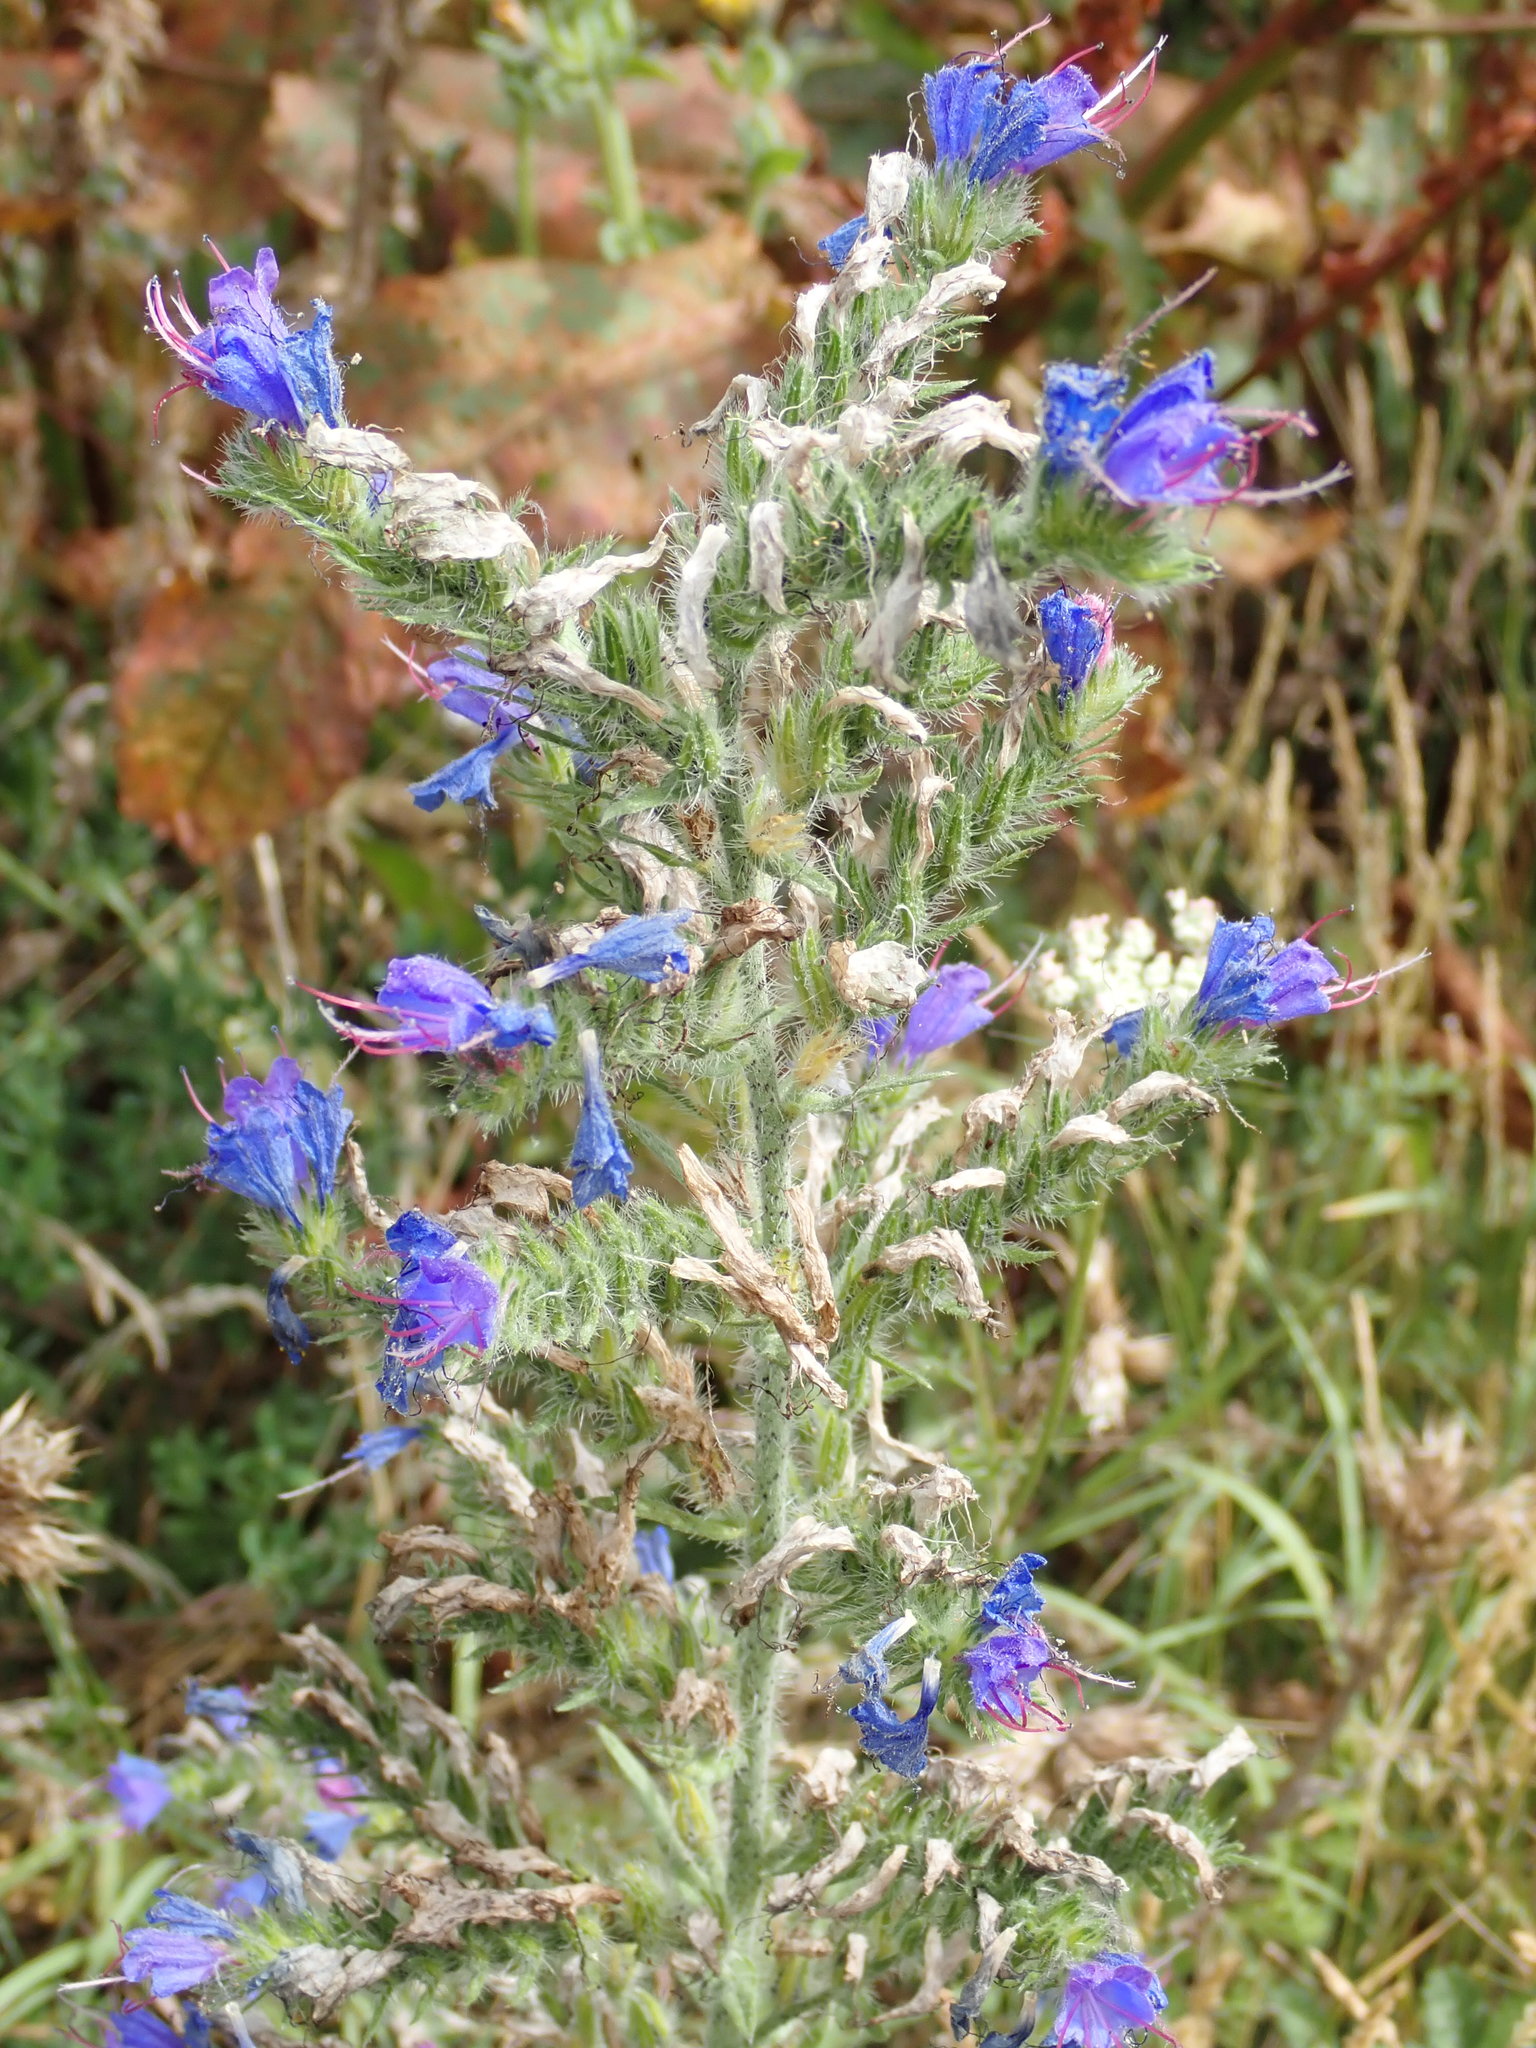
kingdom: Plantae
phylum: Tracheophyta
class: Magnoliopsida
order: Boraginales
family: Boraginaceae
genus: Echium
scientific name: Echium vulgare
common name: Common viper's bugloss
